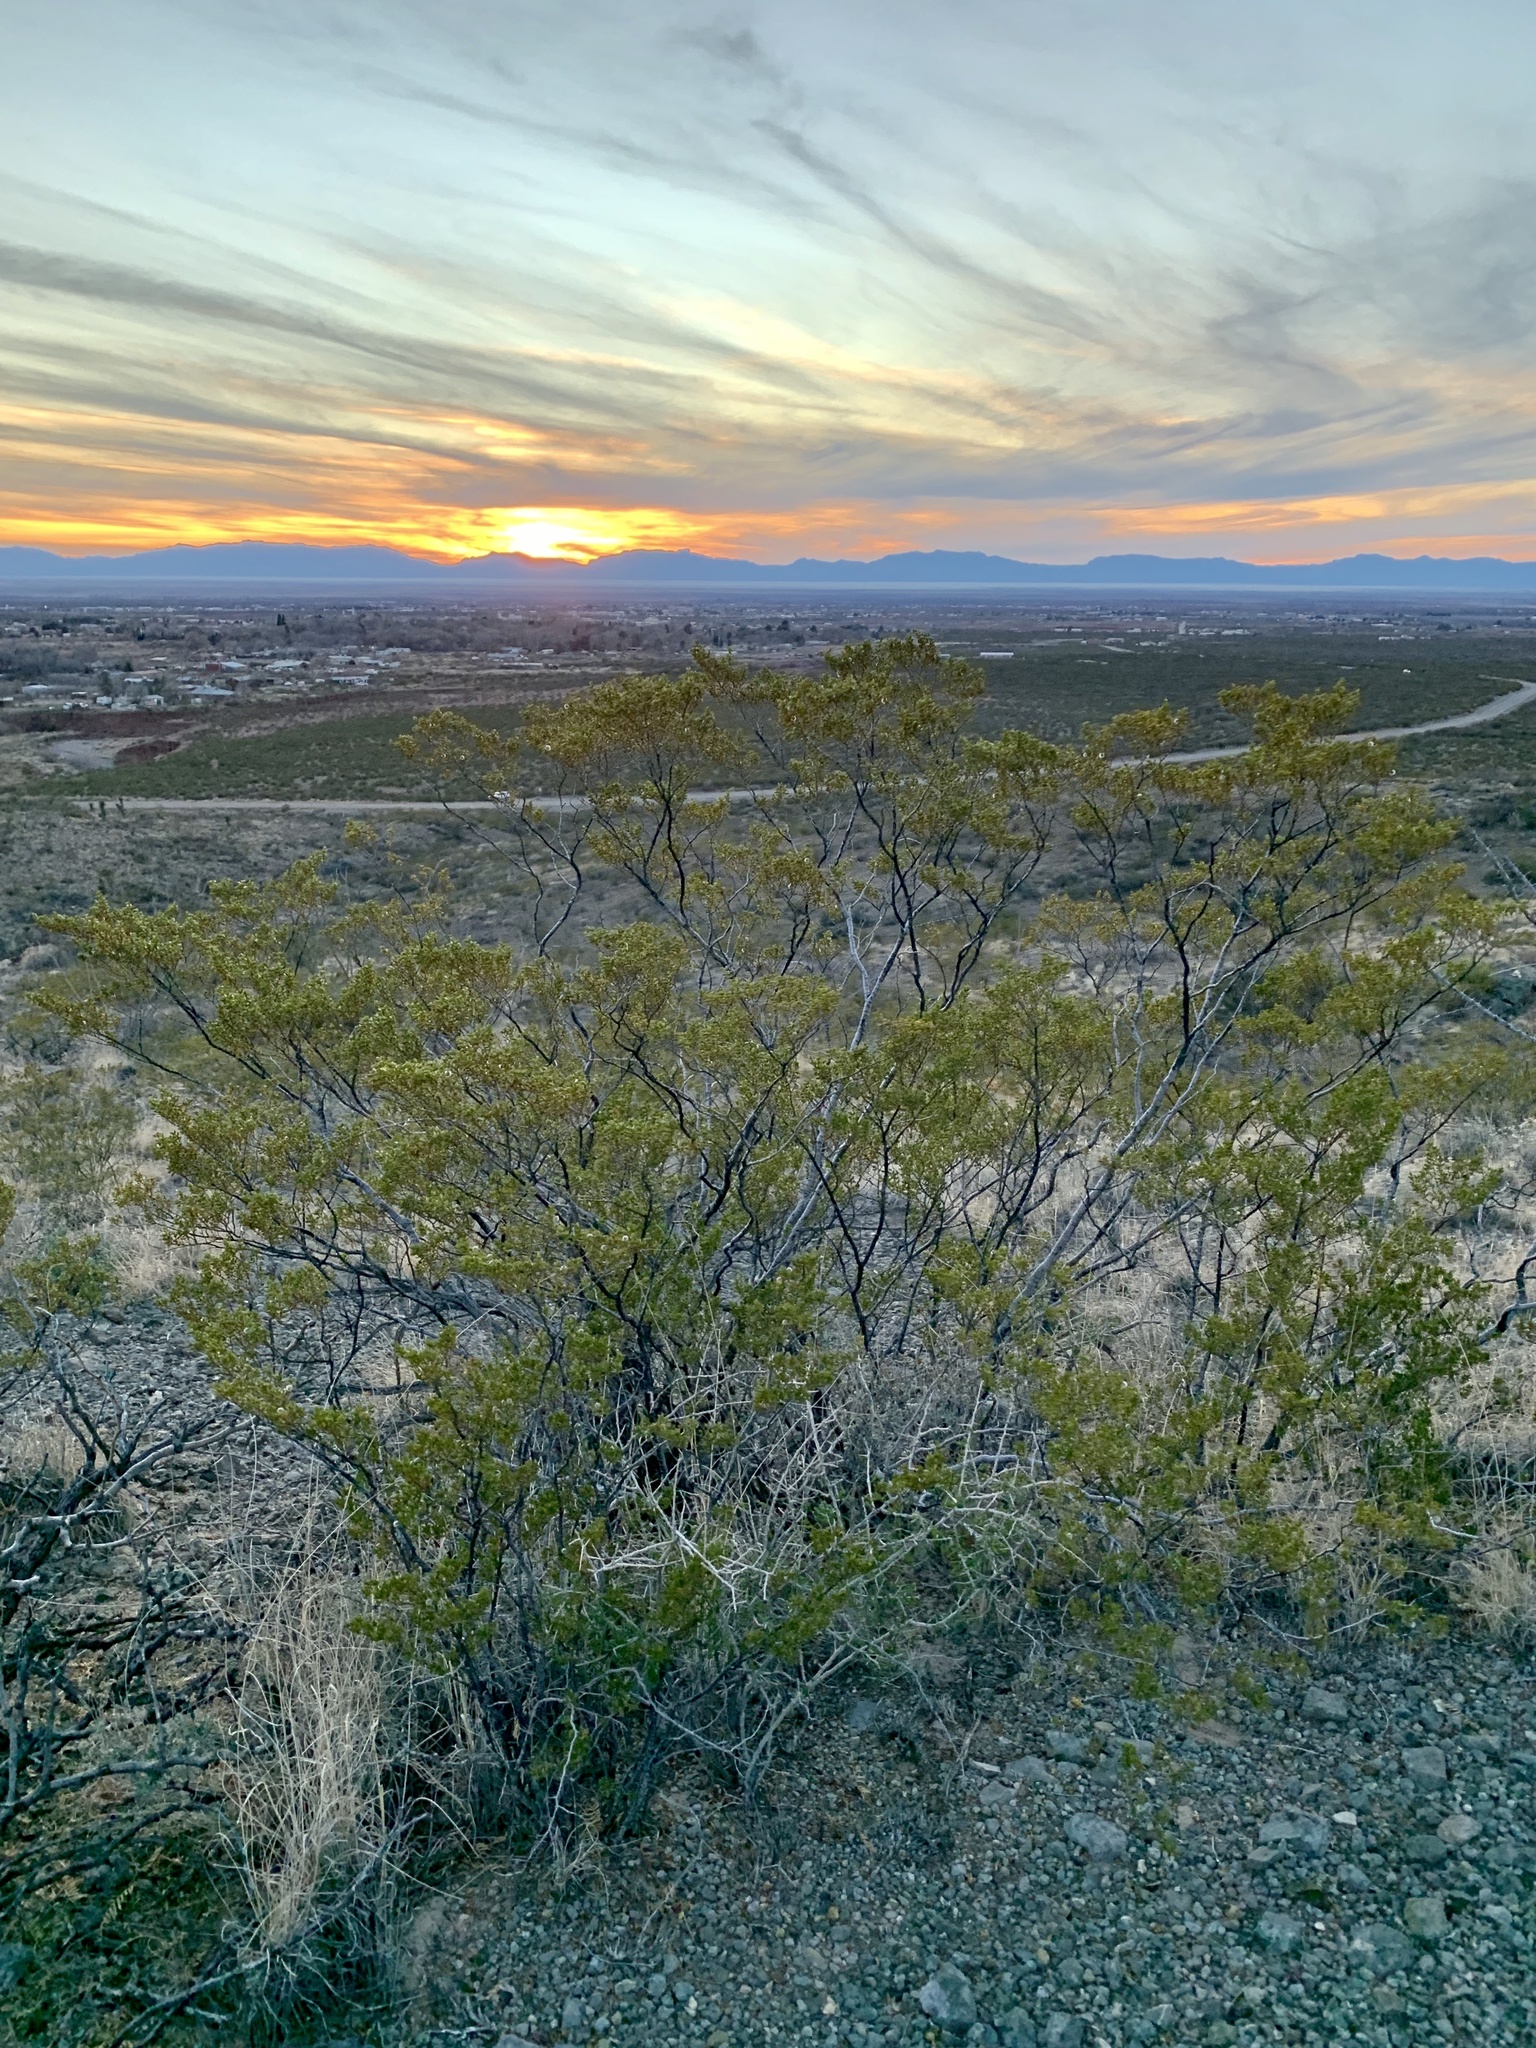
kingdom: Plantae
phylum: Tracheophyta
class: Magnoliopsida
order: Zygophyllales
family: Zygophyllaceae
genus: Larrea
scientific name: Larrea tridentata
